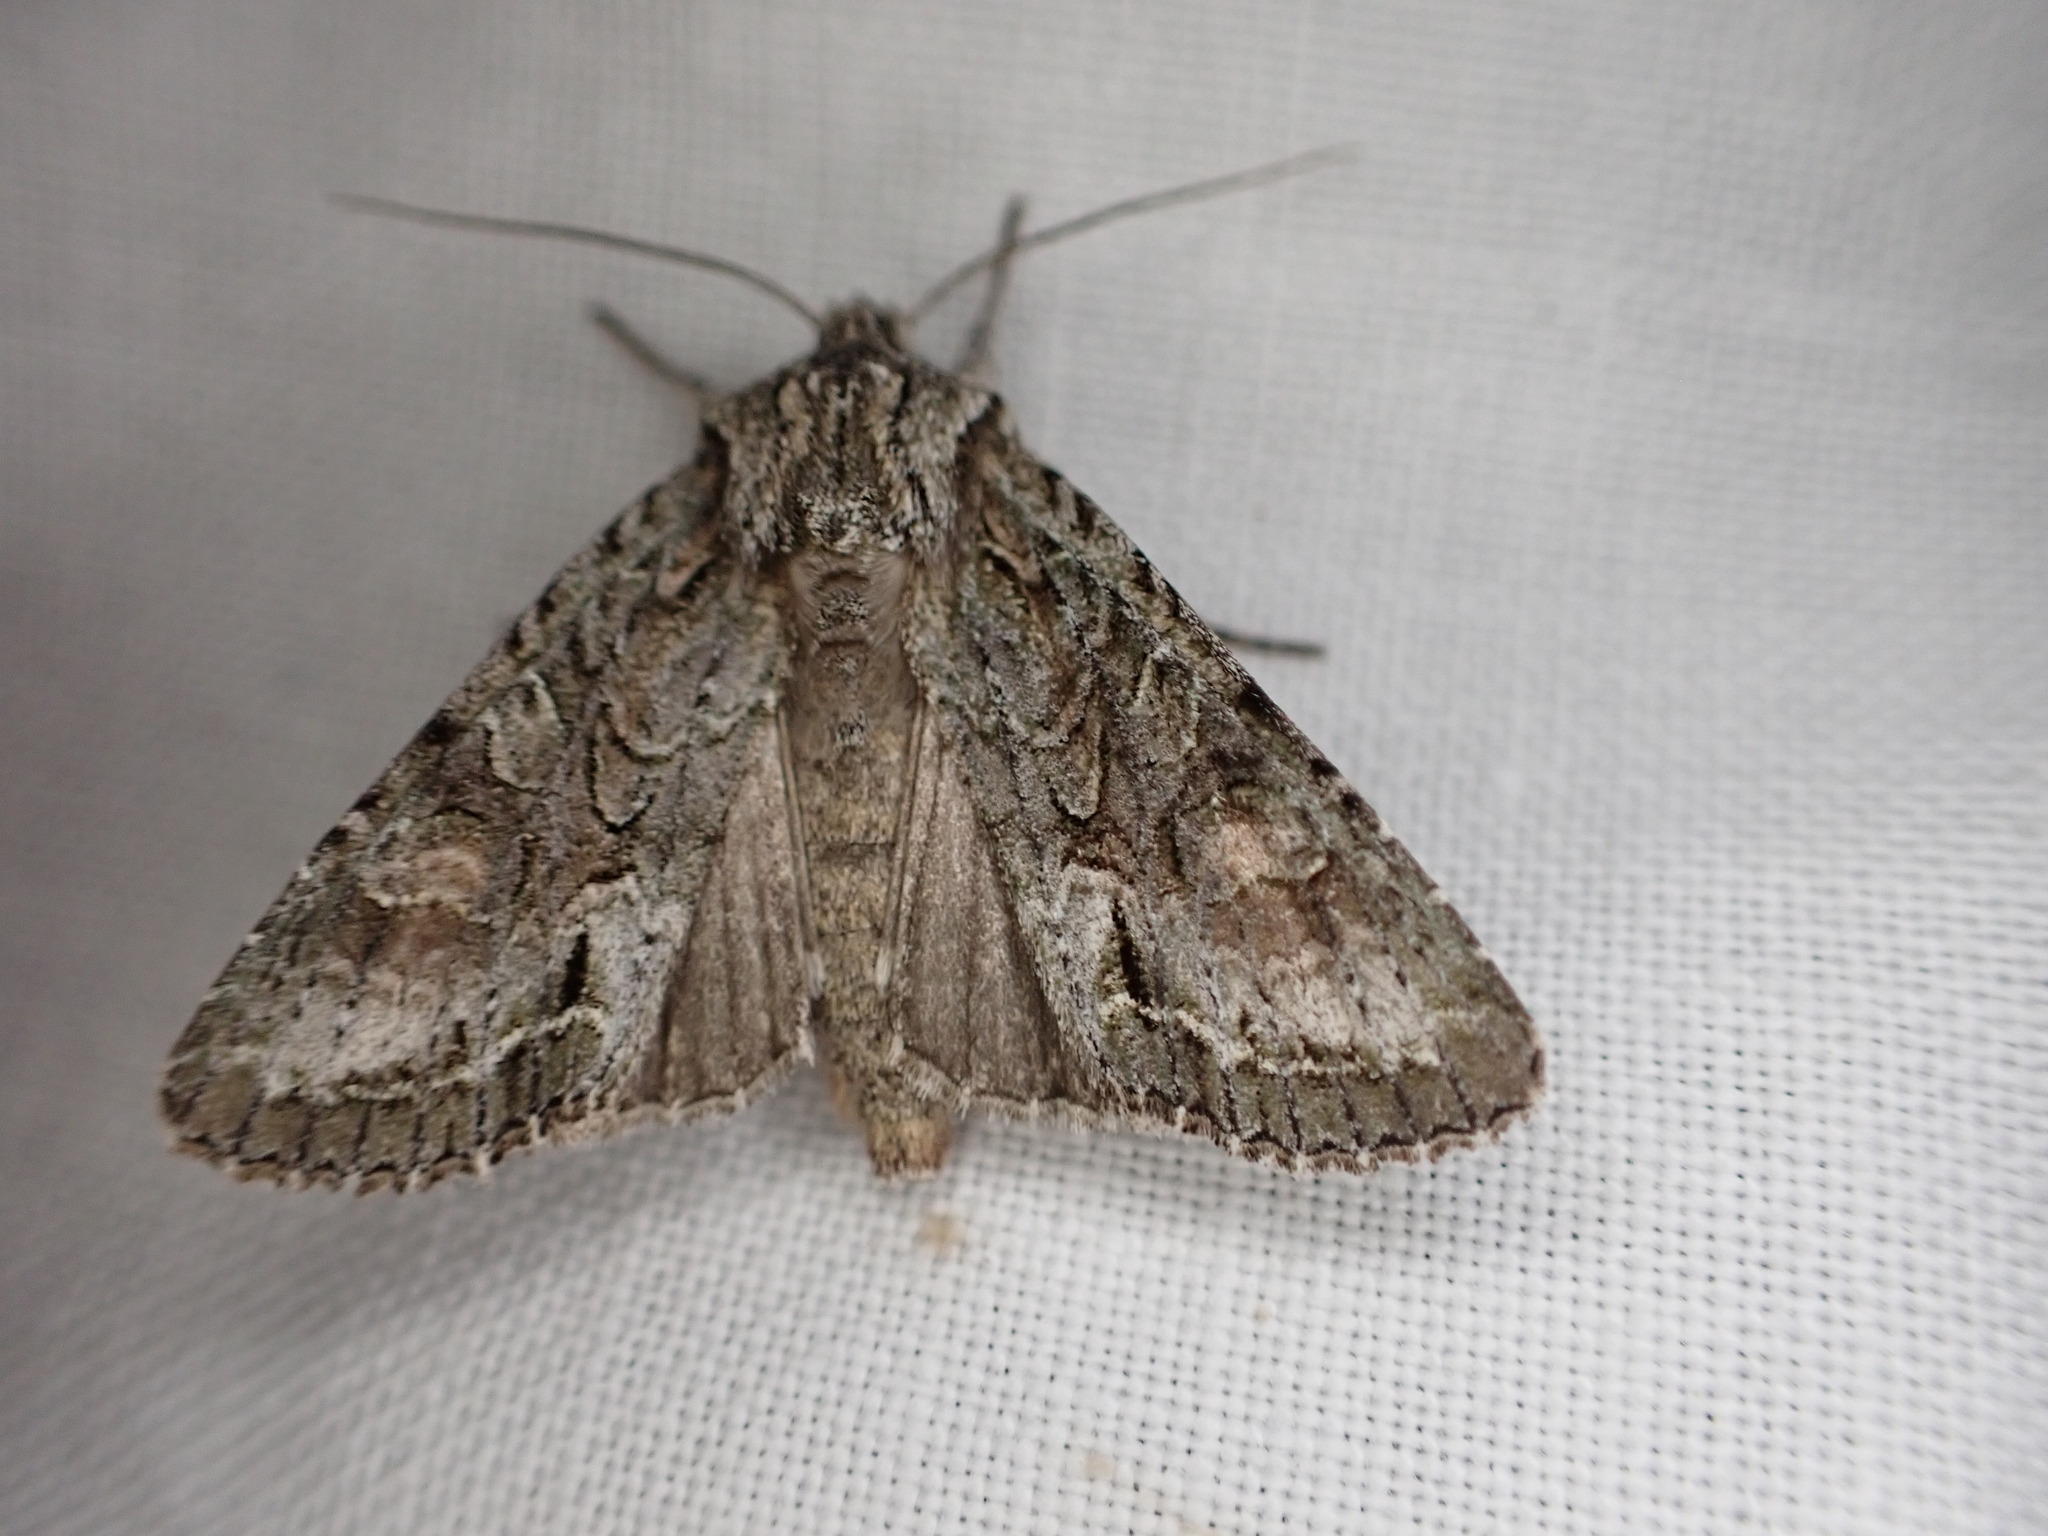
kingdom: Animalia
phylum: Arthropoda
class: Insecta
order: Lepidoptera
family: Noctuidae
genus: Ichneutica
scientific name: Ichneutica mutans
